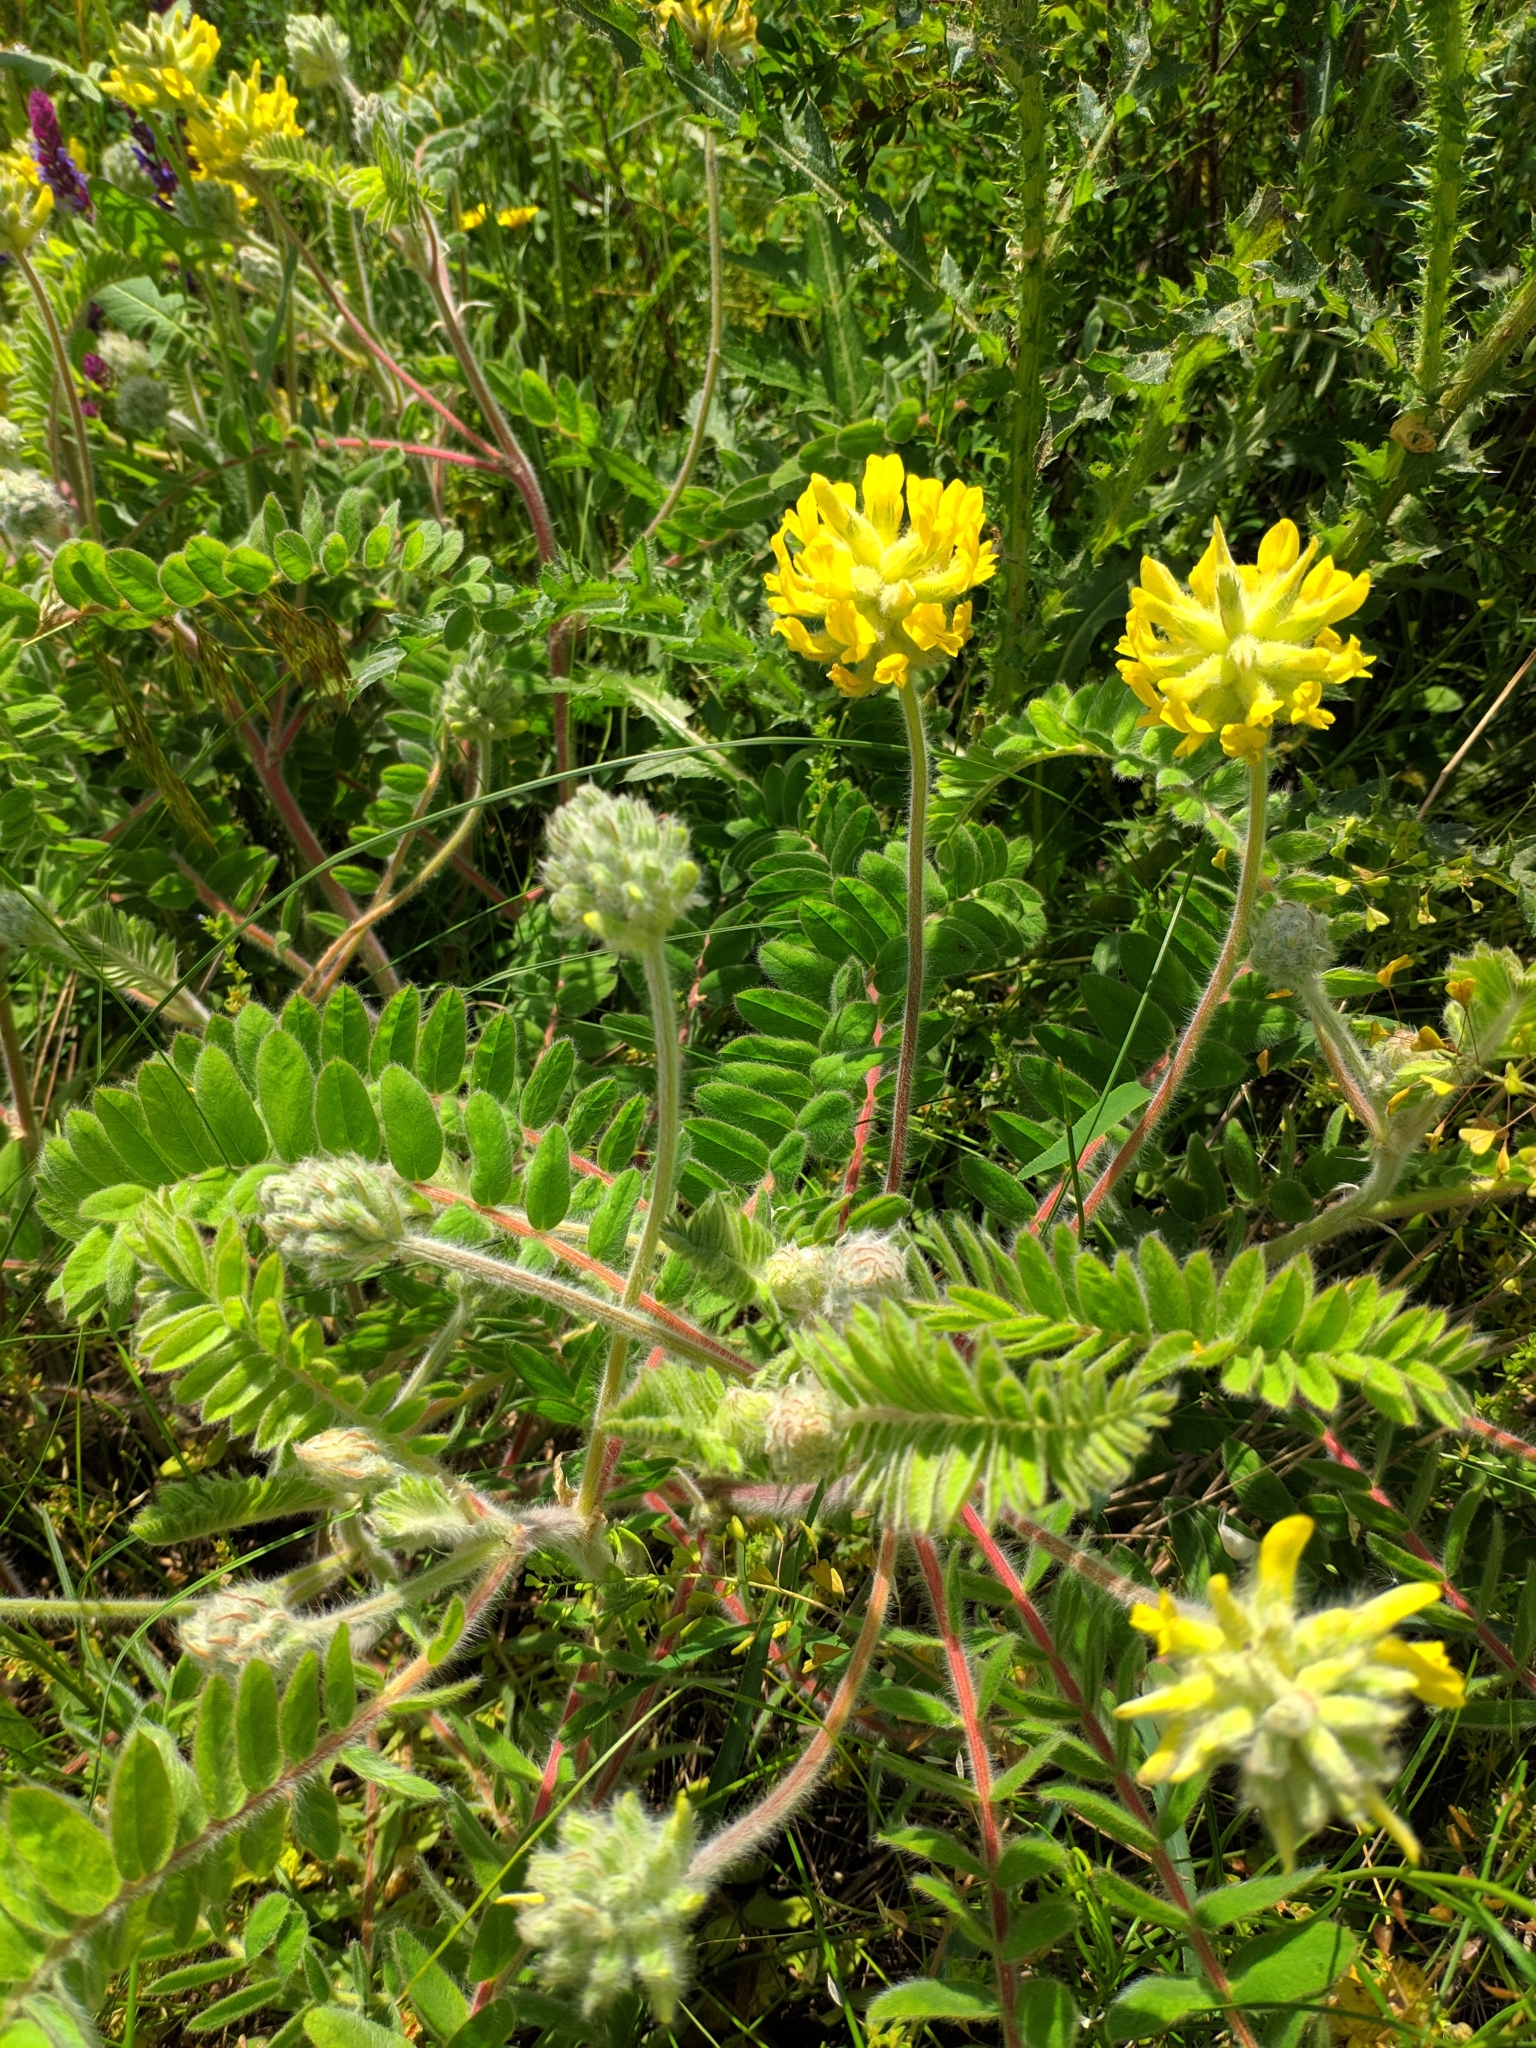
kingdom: Plantae
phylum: Tracheophyta
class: Magnoliopsida
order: Fabales
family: Fabaceae
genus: Astragalus
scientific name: Astragalus dasyanthus
